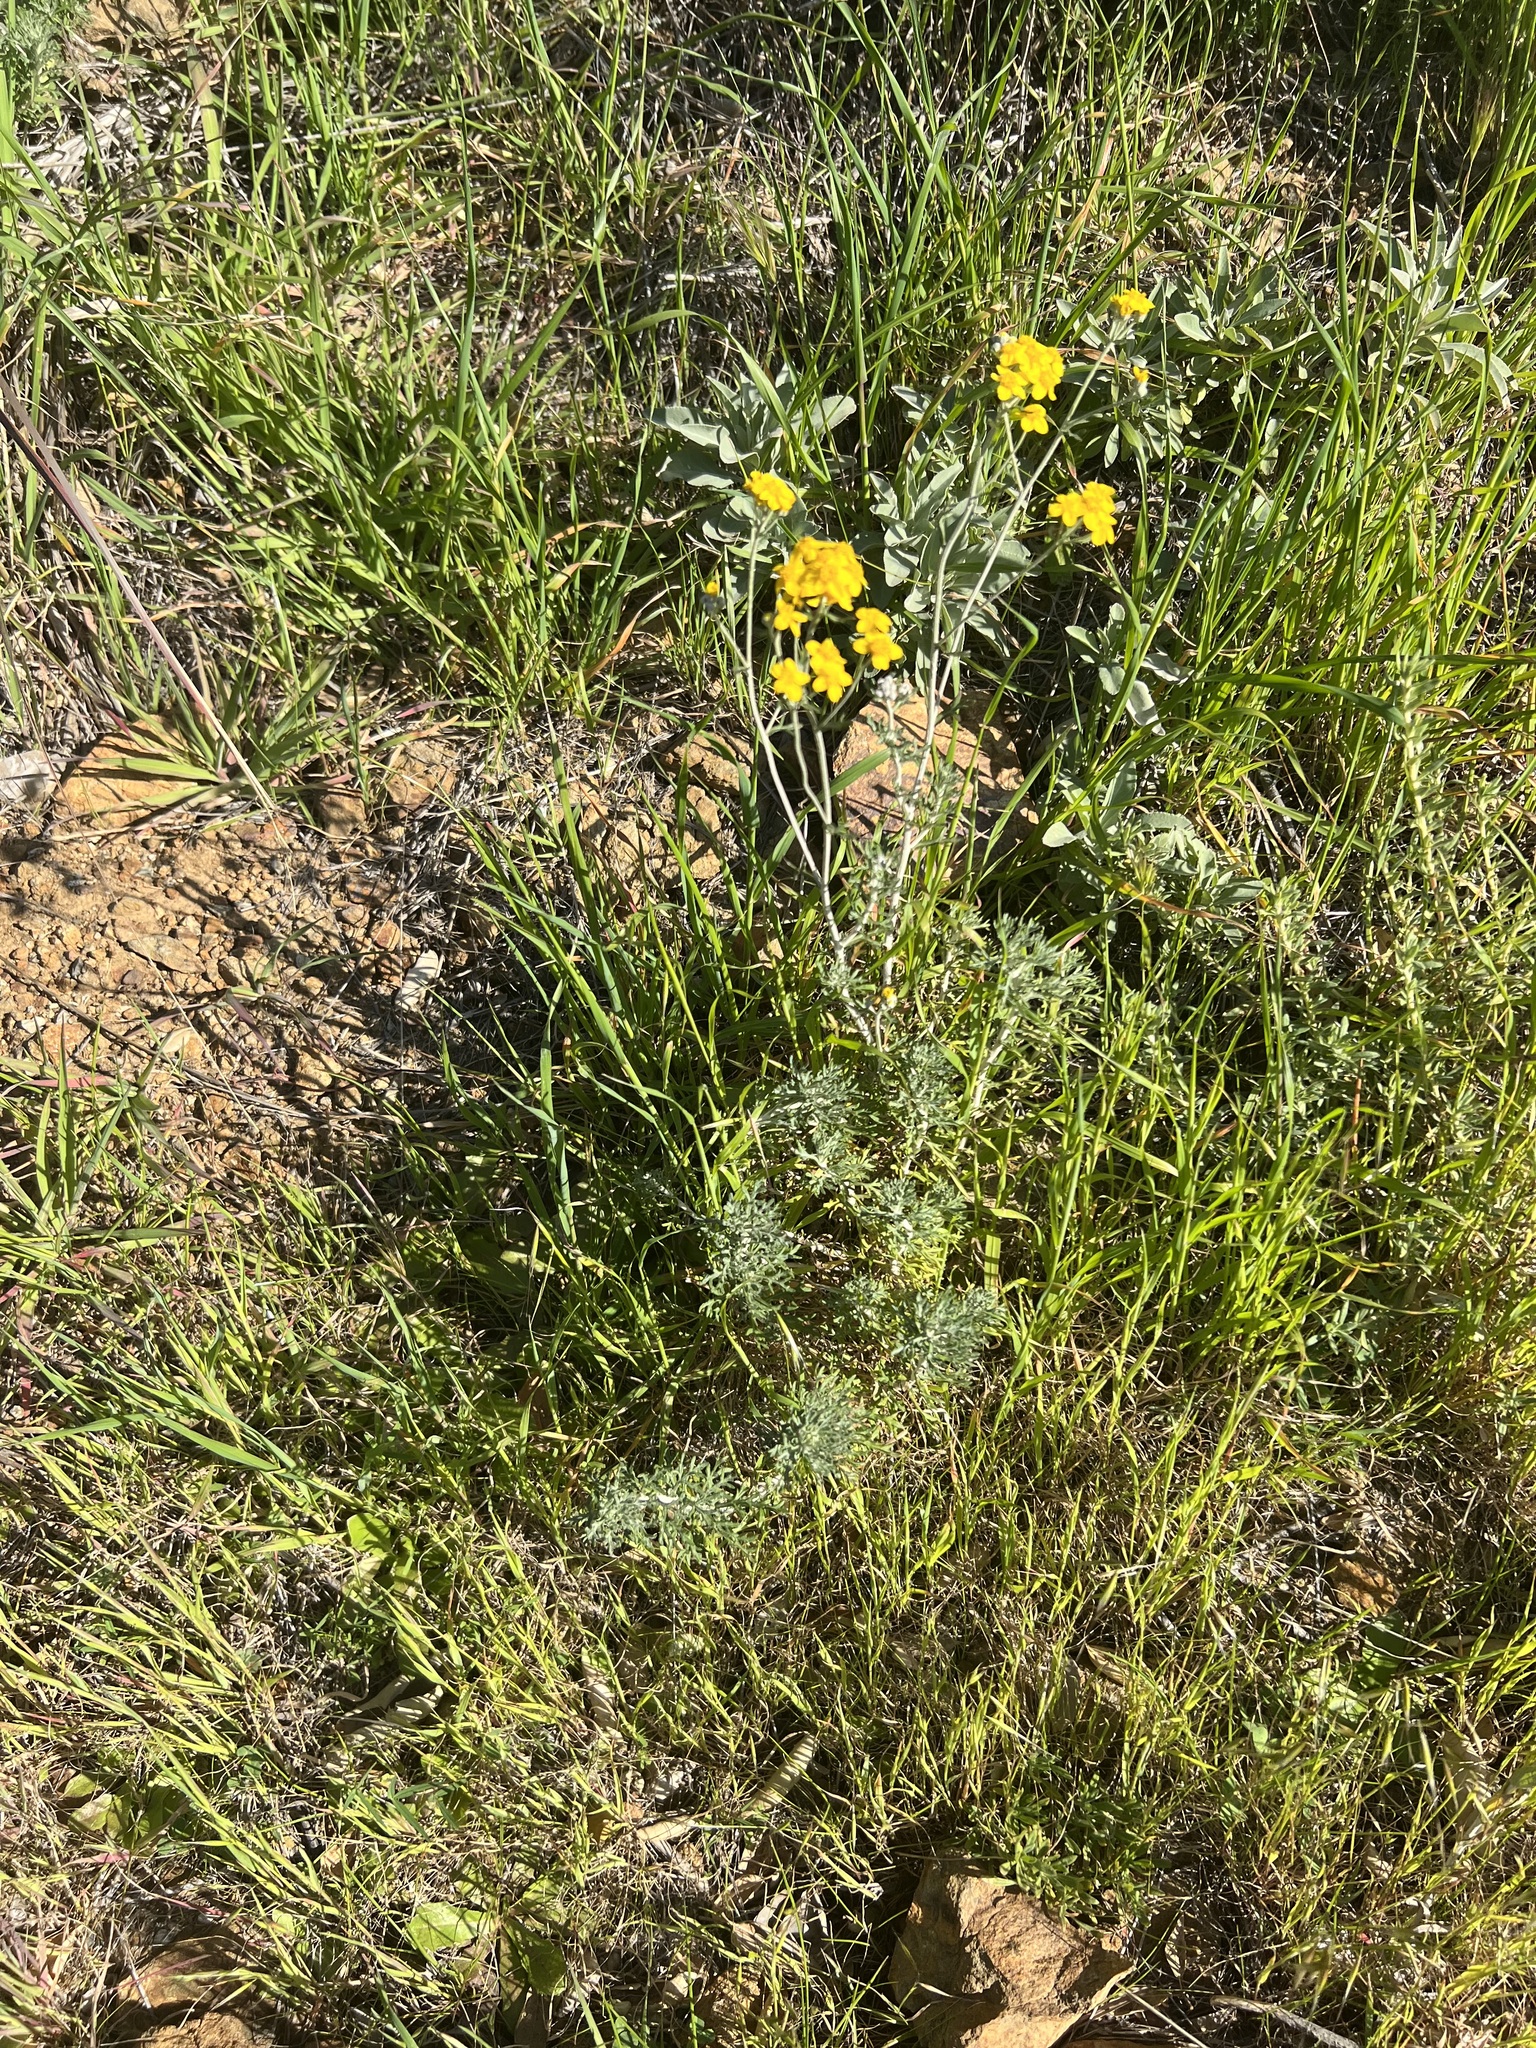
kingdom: Plantae
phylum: Tracheophyta
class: Magnoliopsida
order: Asterales
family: Asteraceae
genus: Eriophyllum
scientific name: Eriophyllum confertiflorum
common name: Golden-yarrow
